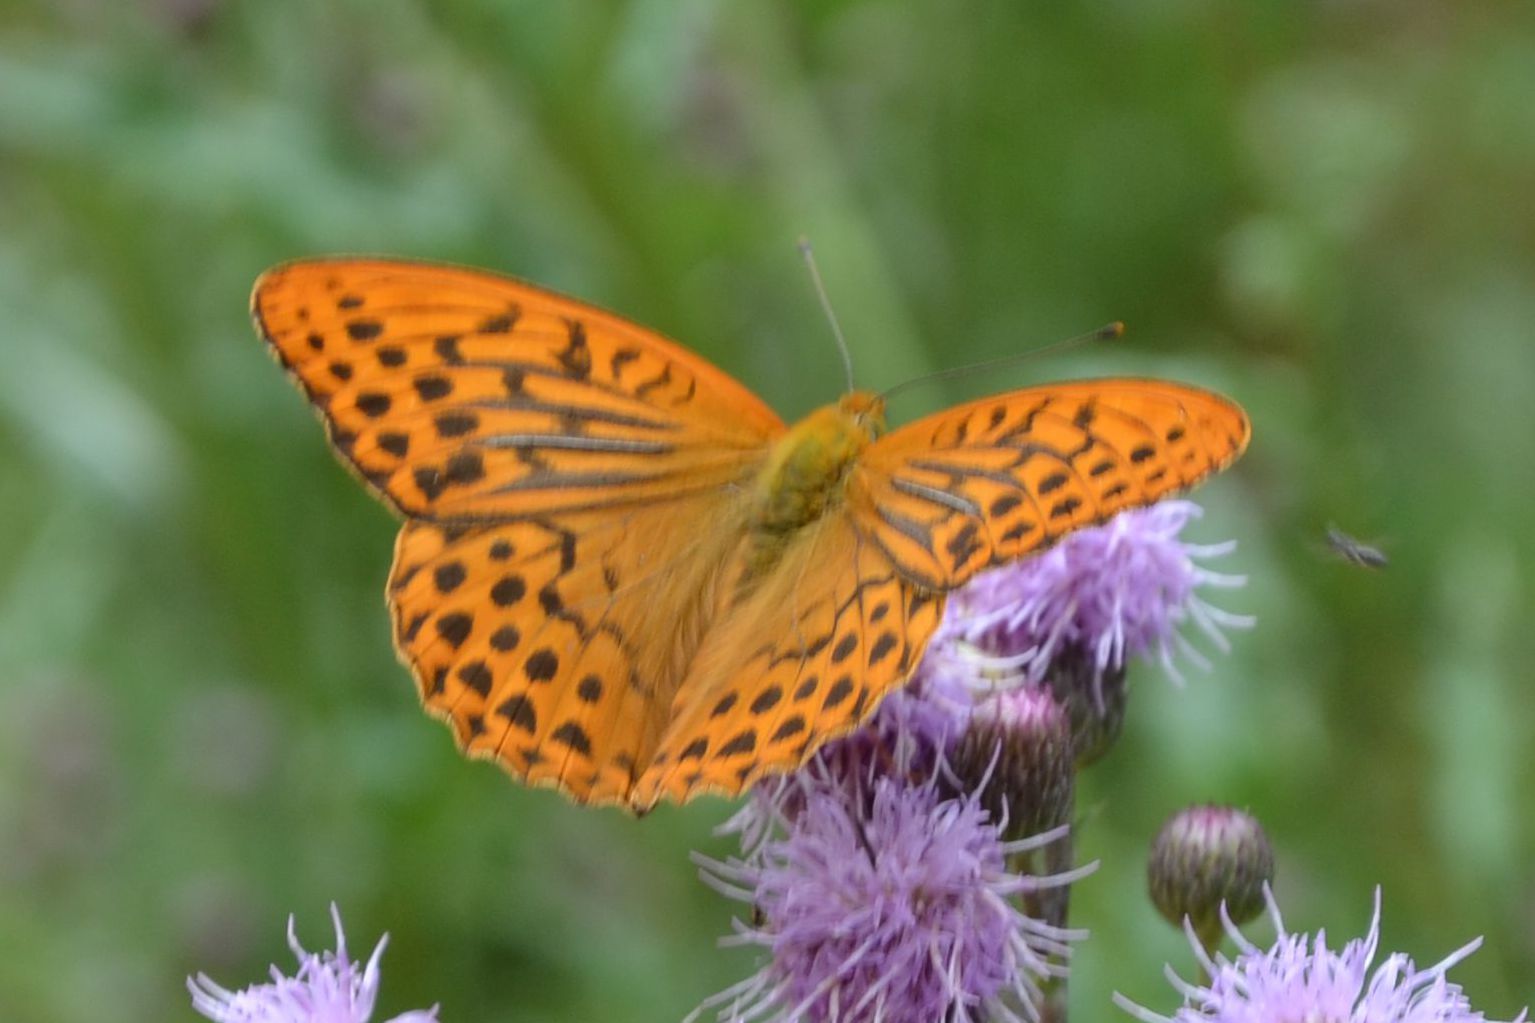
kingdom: Animalia
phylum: Arthropoda
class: Insecta
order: Lepidoptera
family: Nymphalidae
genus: Argynnis
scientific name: Argynnis paphia
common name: Silver-washed fritillary
